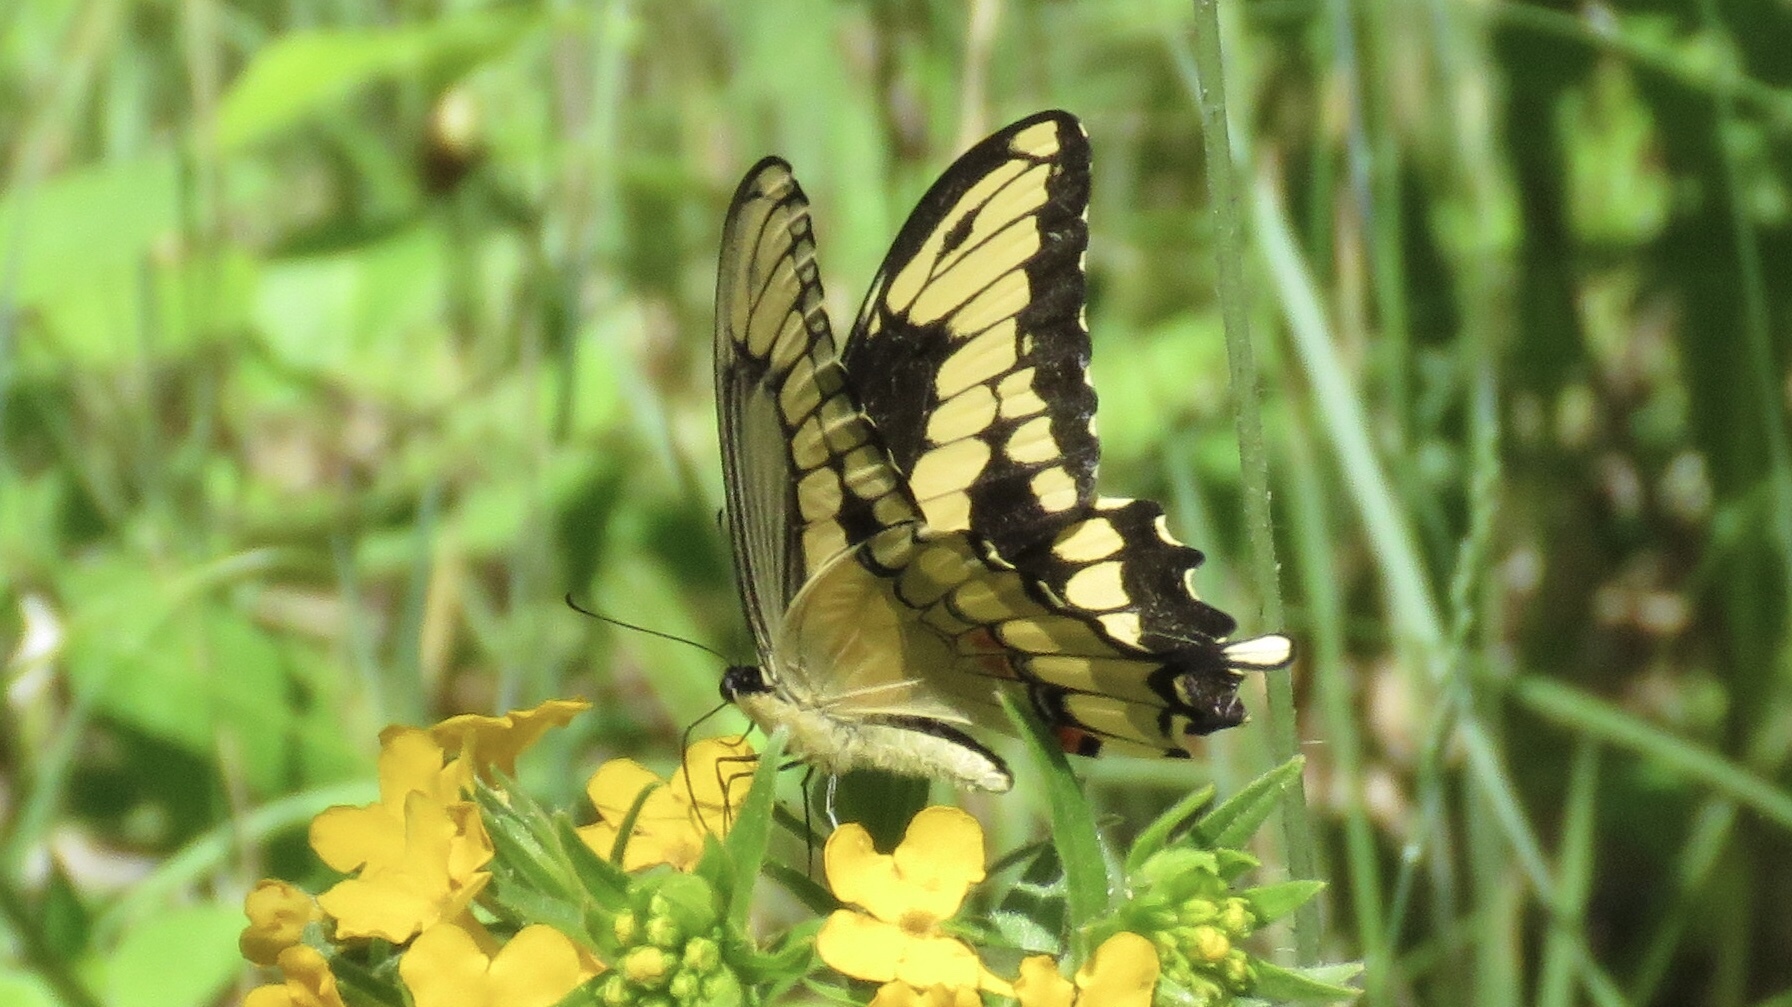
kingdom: Animalia
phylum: Arthropoda
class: Insecta
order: Lepidoptera
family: Papilionidae
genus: Papilio
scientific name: Papilio cresphontes
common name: Giant swallowtail
